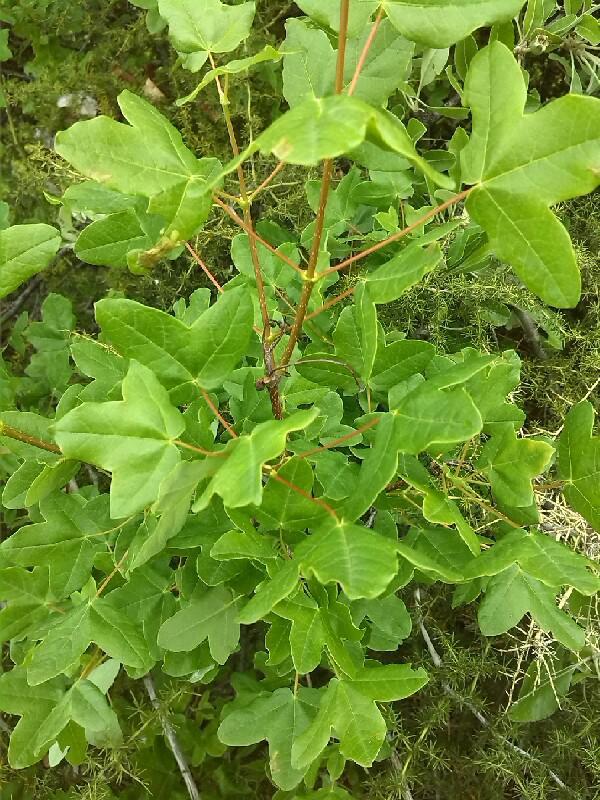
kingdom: Plantae
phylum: Tracheophyta
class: Magnoliopsida
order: Sapindales
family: Sapindaceae
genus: Acer
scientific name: Acer monspessulanum
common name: Montpellier maple
